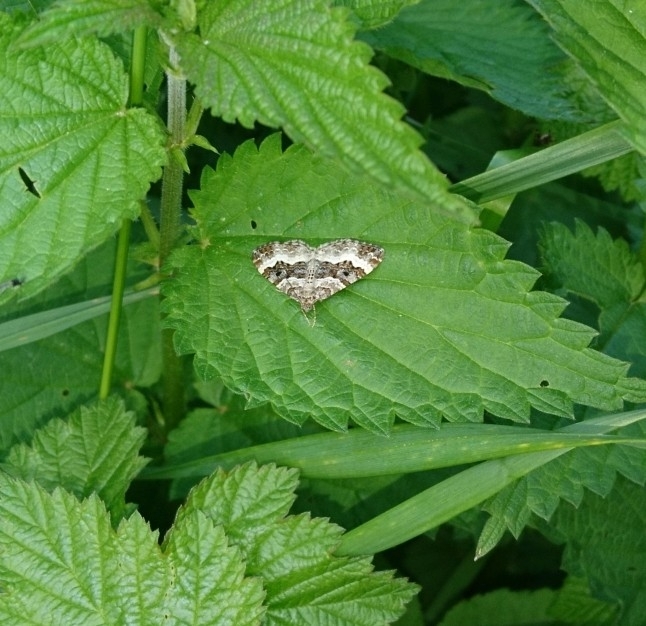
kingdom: Animalia
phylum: Arthropoda
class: Insecta
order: Lepidoptera
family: Geometridae
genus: Epirrhoe
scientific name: Epirrhoe alternata
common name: Common carpet
